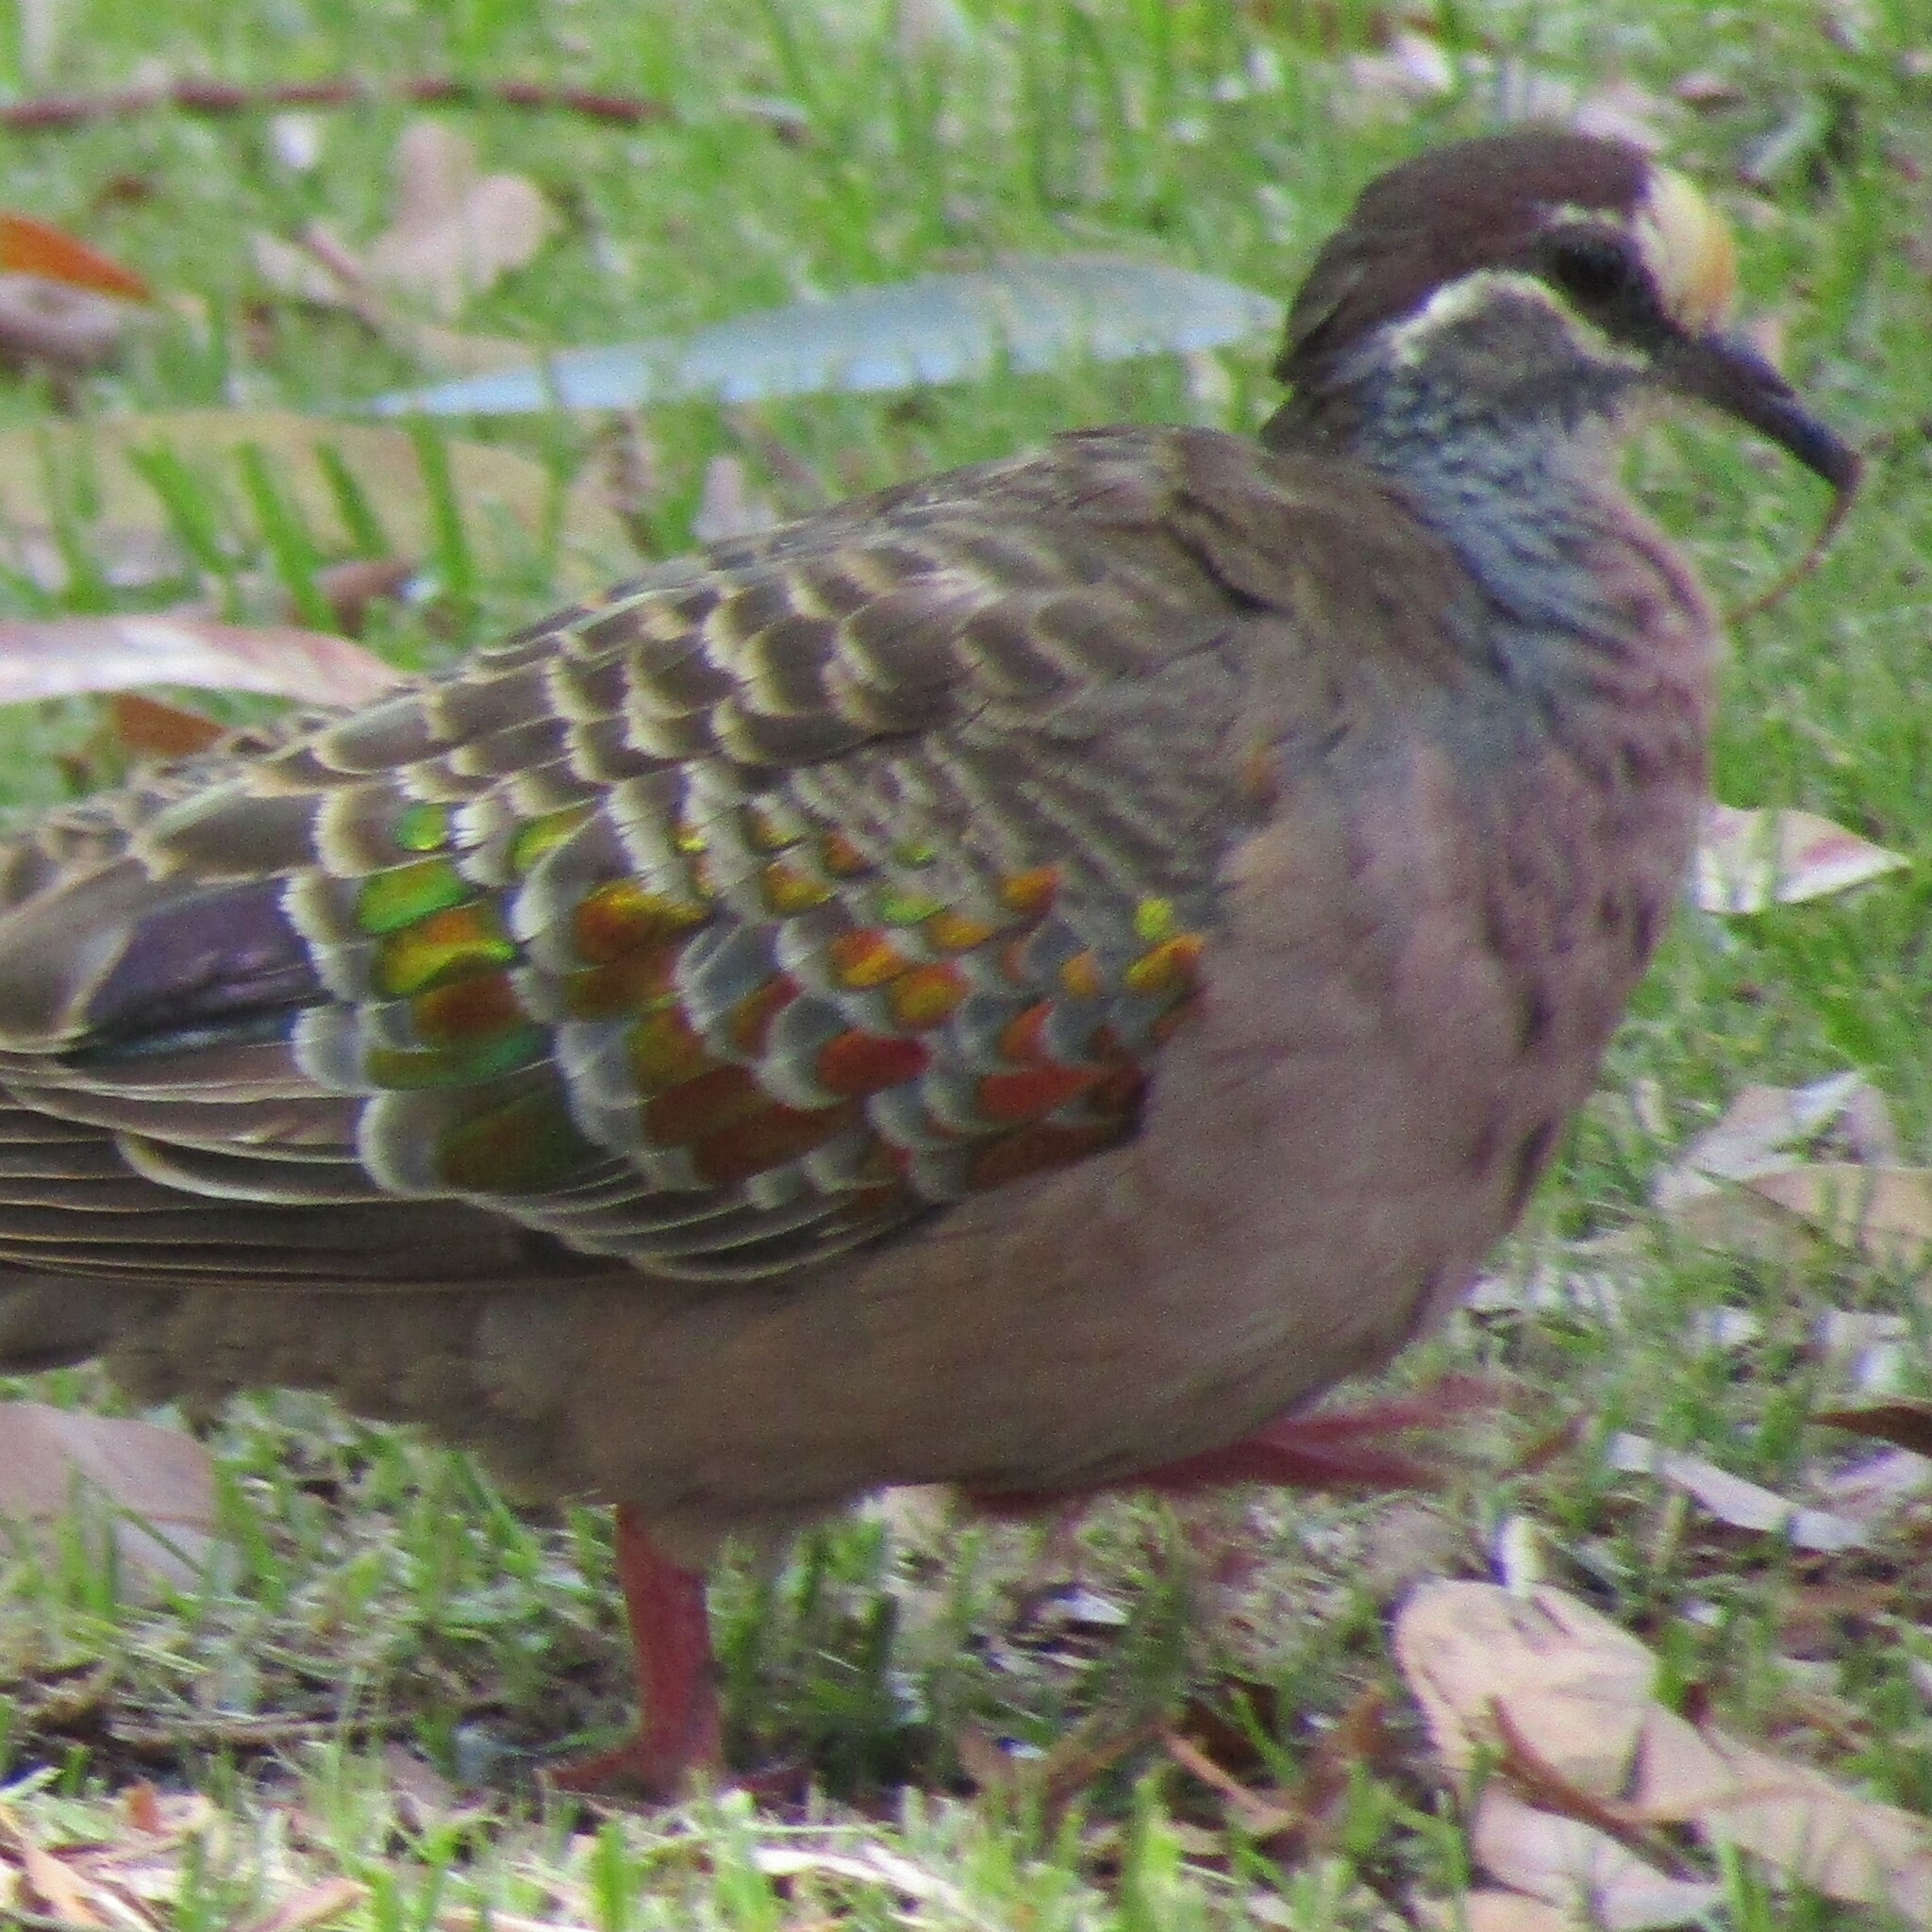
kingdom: Animalia
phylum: Chordata
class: Aves
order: Columbiformes
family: Columbidae
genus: Phaps
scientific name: Phaps chalcoptera
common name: Common bronzewing
